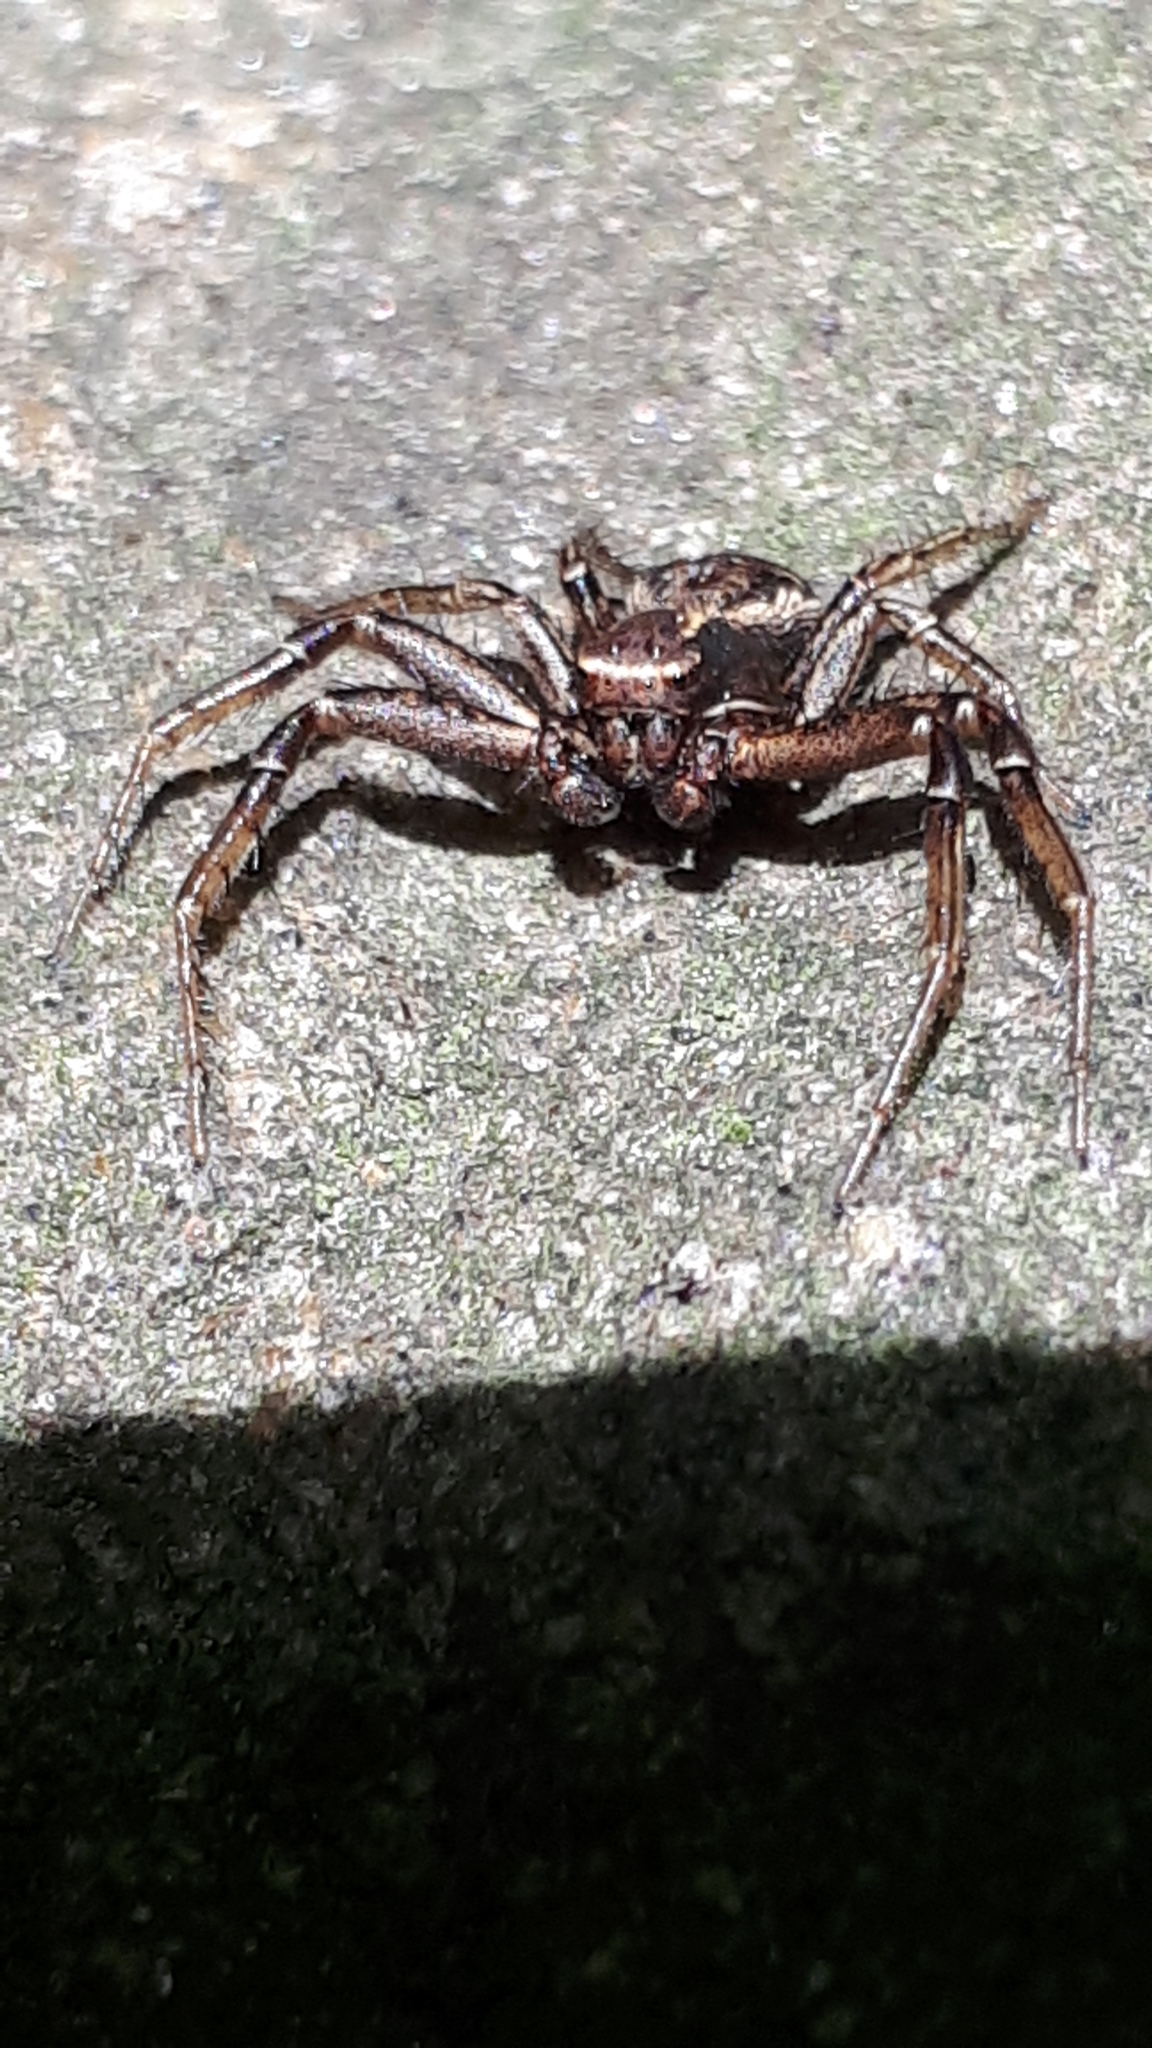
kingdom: Animalia
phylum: Arthropoda
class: Arachnida
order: Araneae
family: Thomisidae
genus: Xysticus
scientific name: Xysticus
